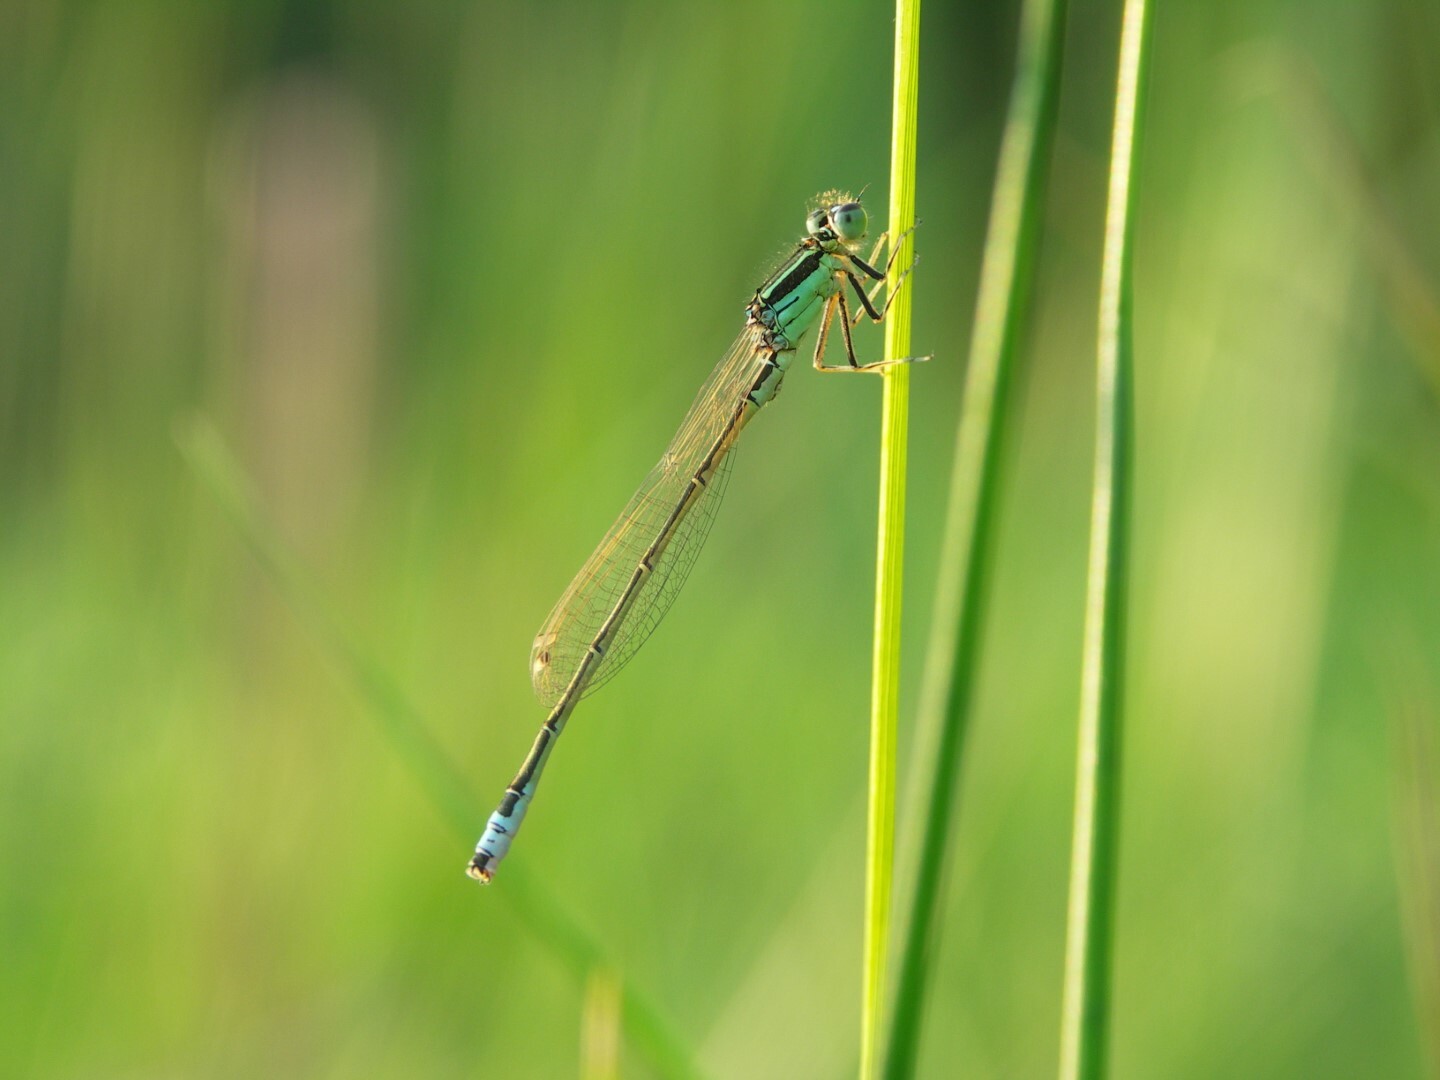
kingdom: Animalia
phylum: Arthropoda
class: Insecta
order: Odonata
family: Coenagrionidae
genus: Ischnura
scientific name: Ischnura pumilio
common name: Scarce blue-tailed damselfly
